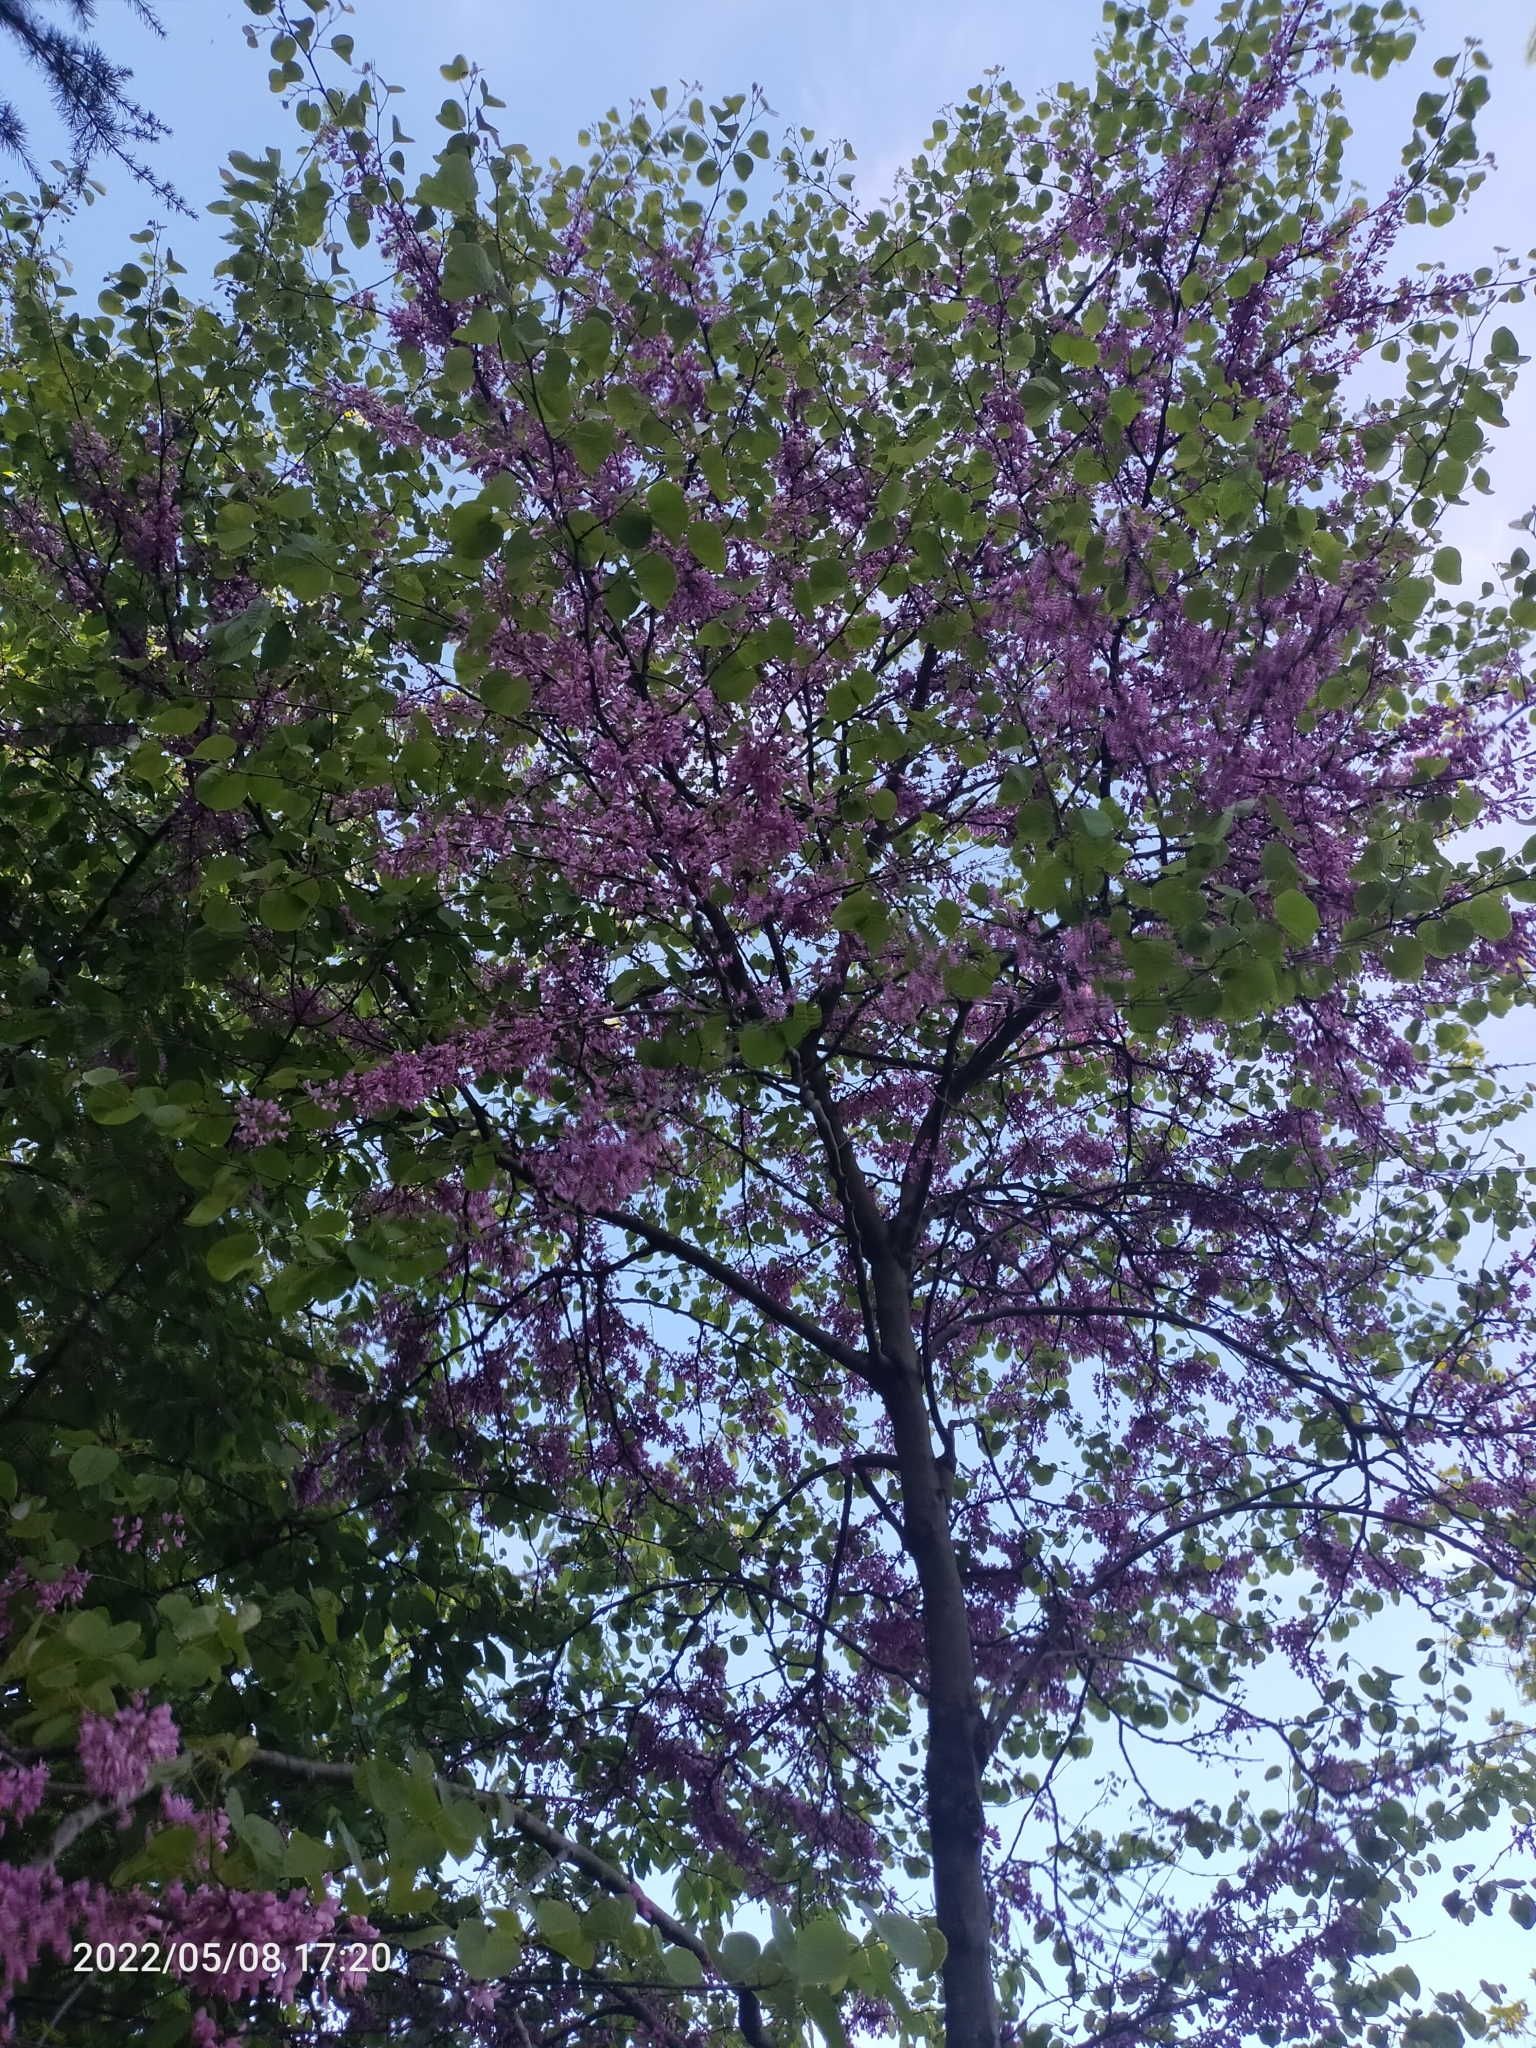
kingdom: Plantae
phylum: Tracheophyta
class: Magnoliopsida
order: Fabales
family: Fabaceae
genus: Cercis
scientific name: Cercis siliquastrum
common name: Judas tree
